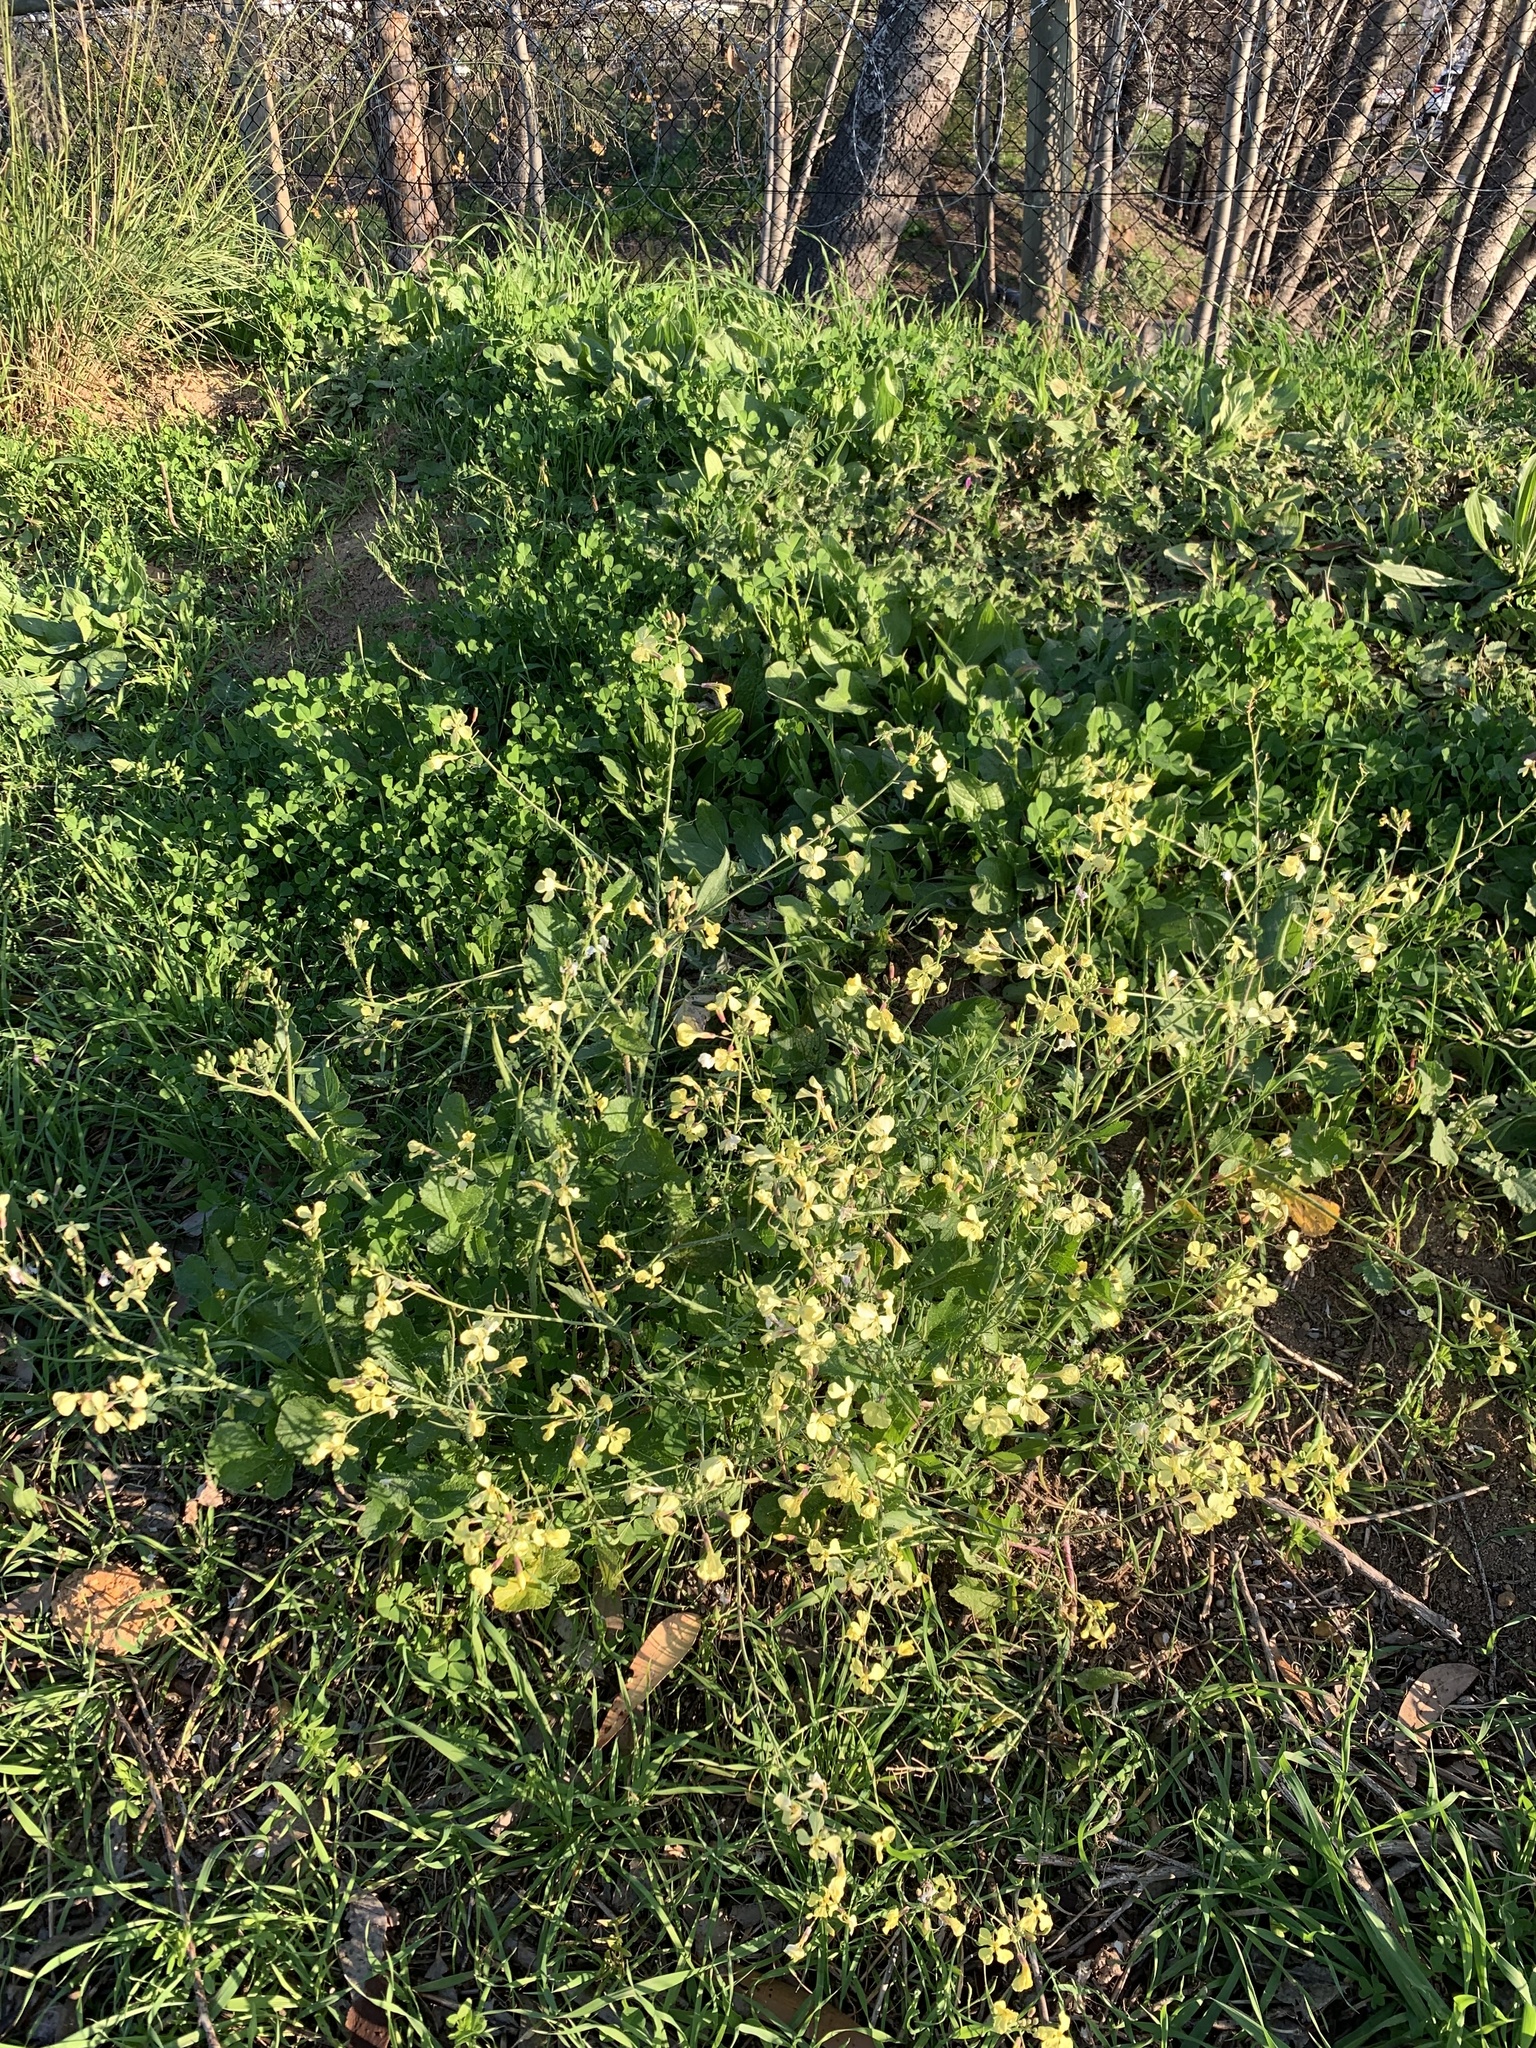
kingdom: Plantae
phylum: Tracheophyta
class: Magnoliopsida
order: Brassicales
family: Brassicaceae
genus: Raphanus
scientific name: Raphanus raphanistrum
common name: Wild radish
